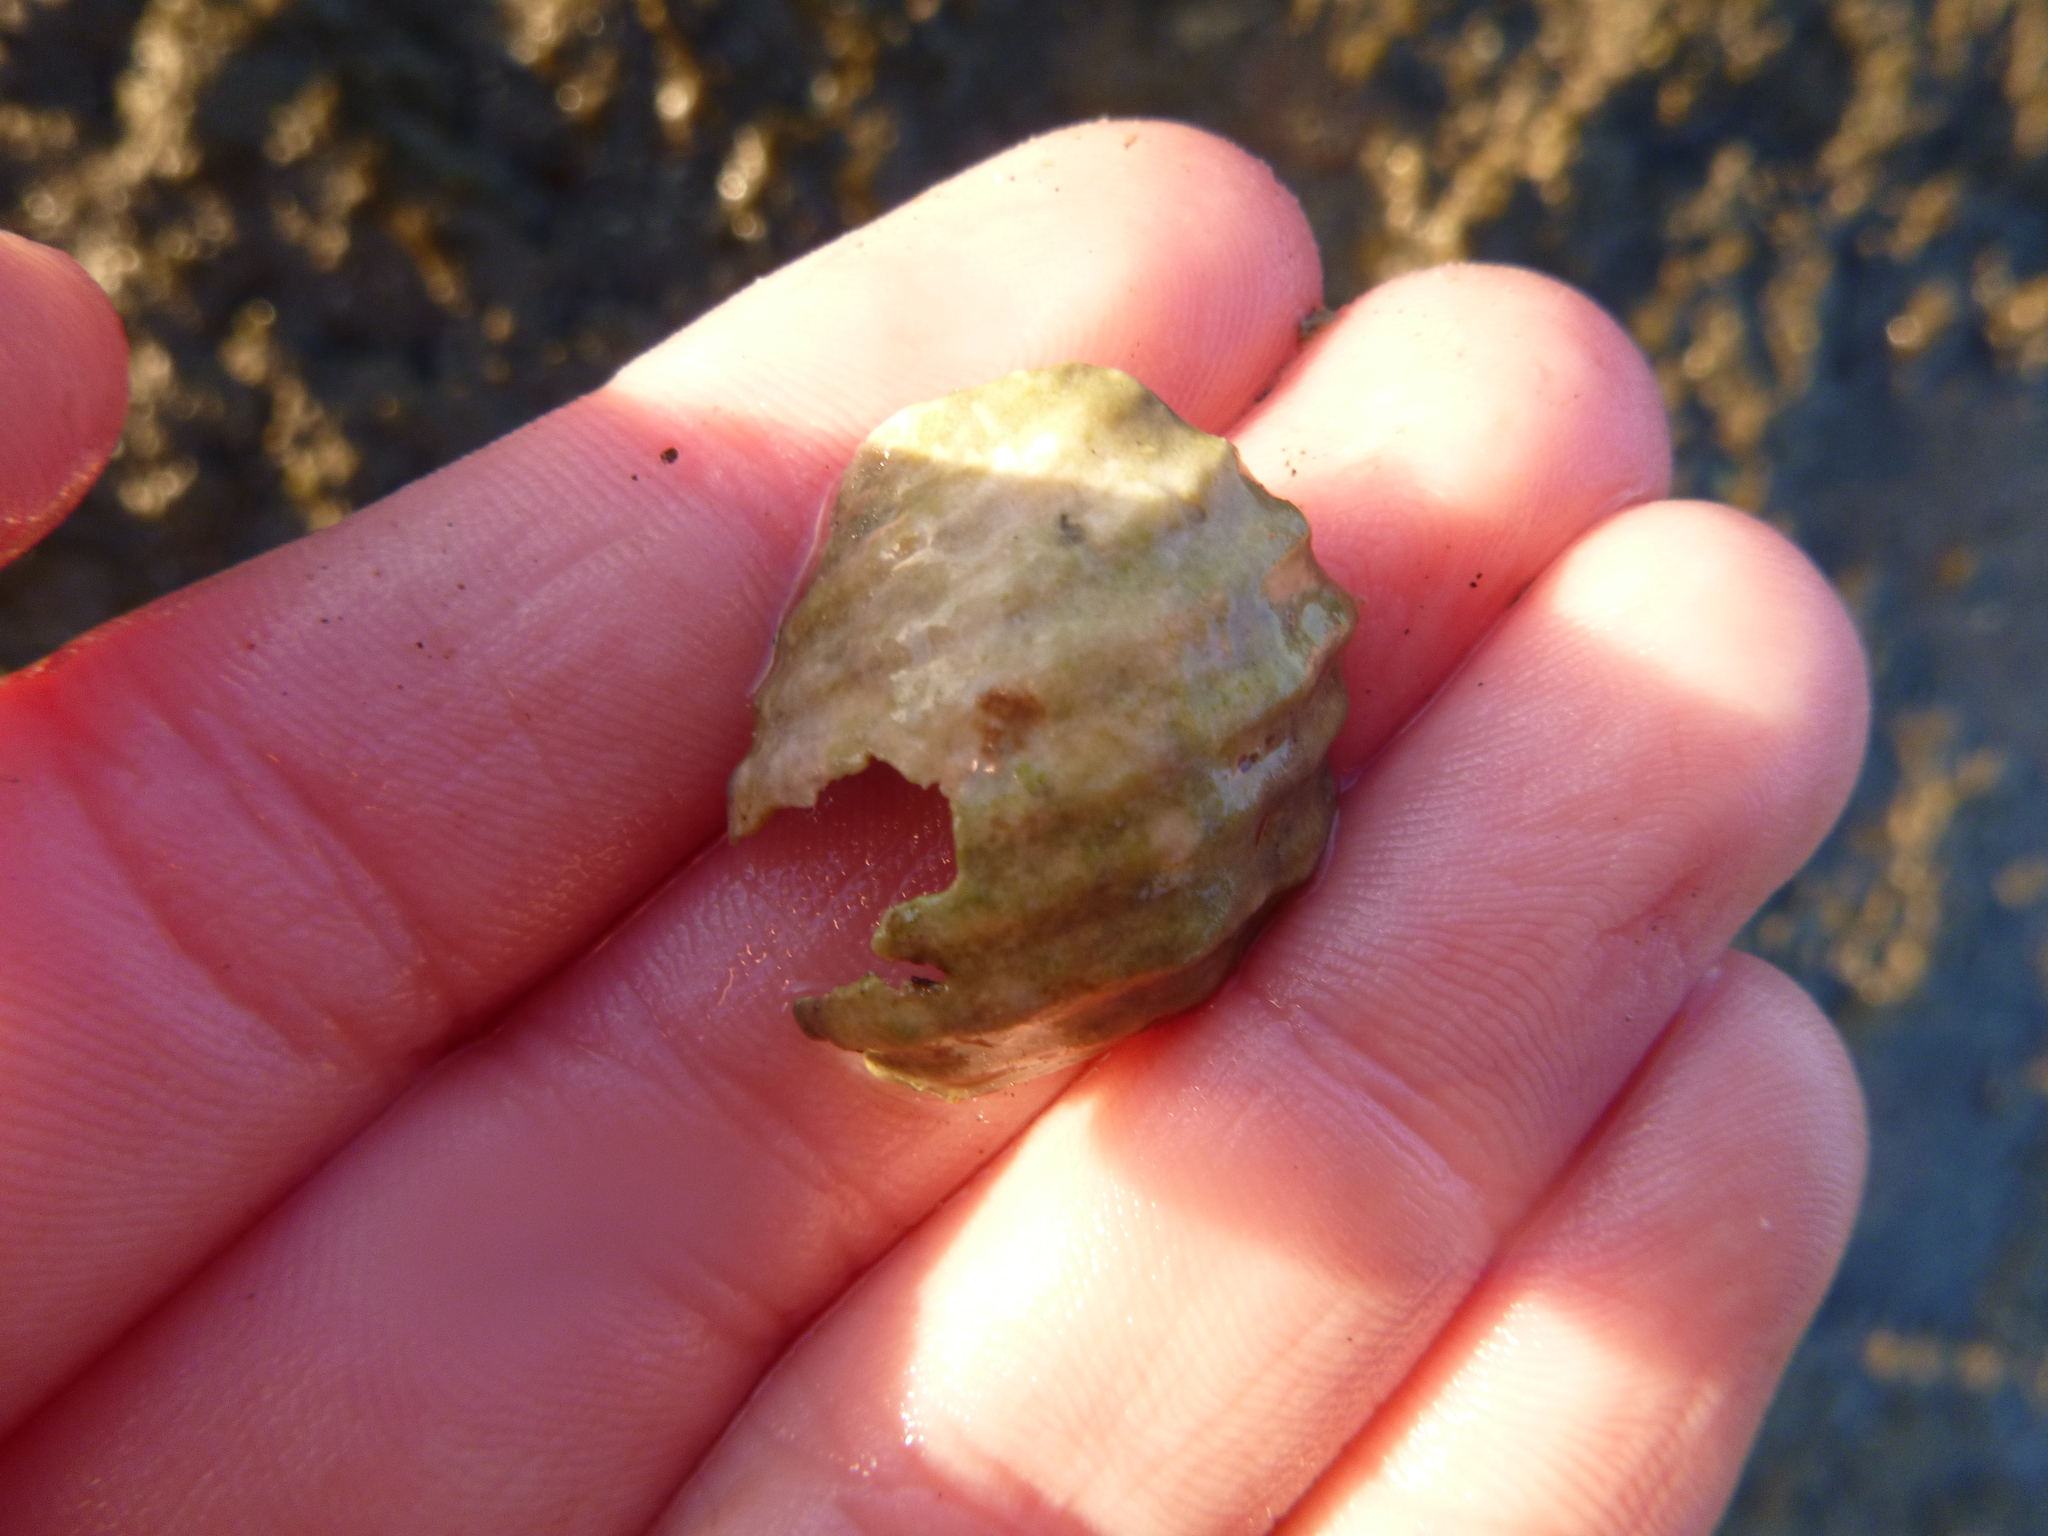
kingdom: Animalia
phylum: Mollusca
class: Gastropoda
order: Neogastropoda
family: Muricidae
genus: Dicathais
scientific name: Dicathais orbita
